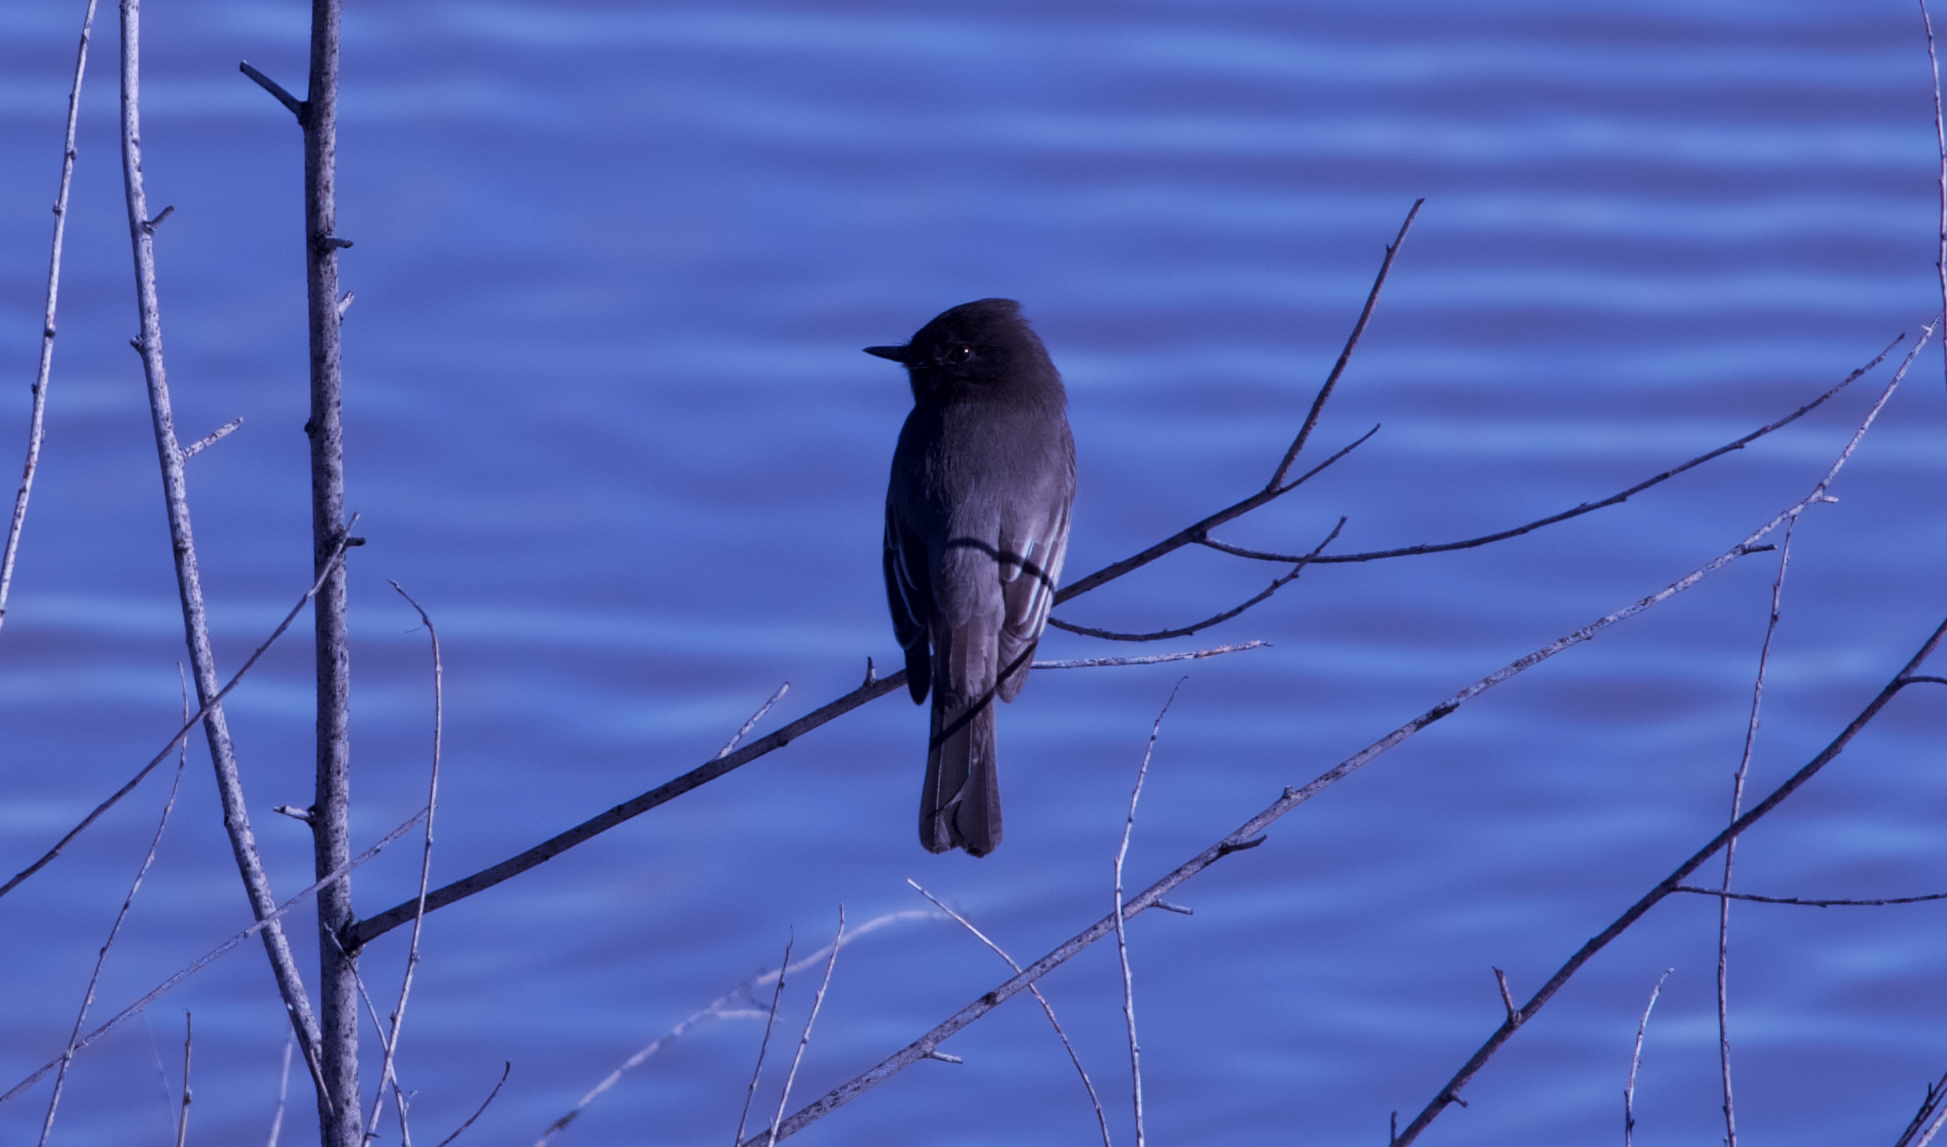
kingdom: Animalia
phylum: Chordata
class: Aves
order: Passeriformes
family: Tyrannidae
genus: Sayornis
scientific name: Sayornis nigricans
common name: Black phoebe
